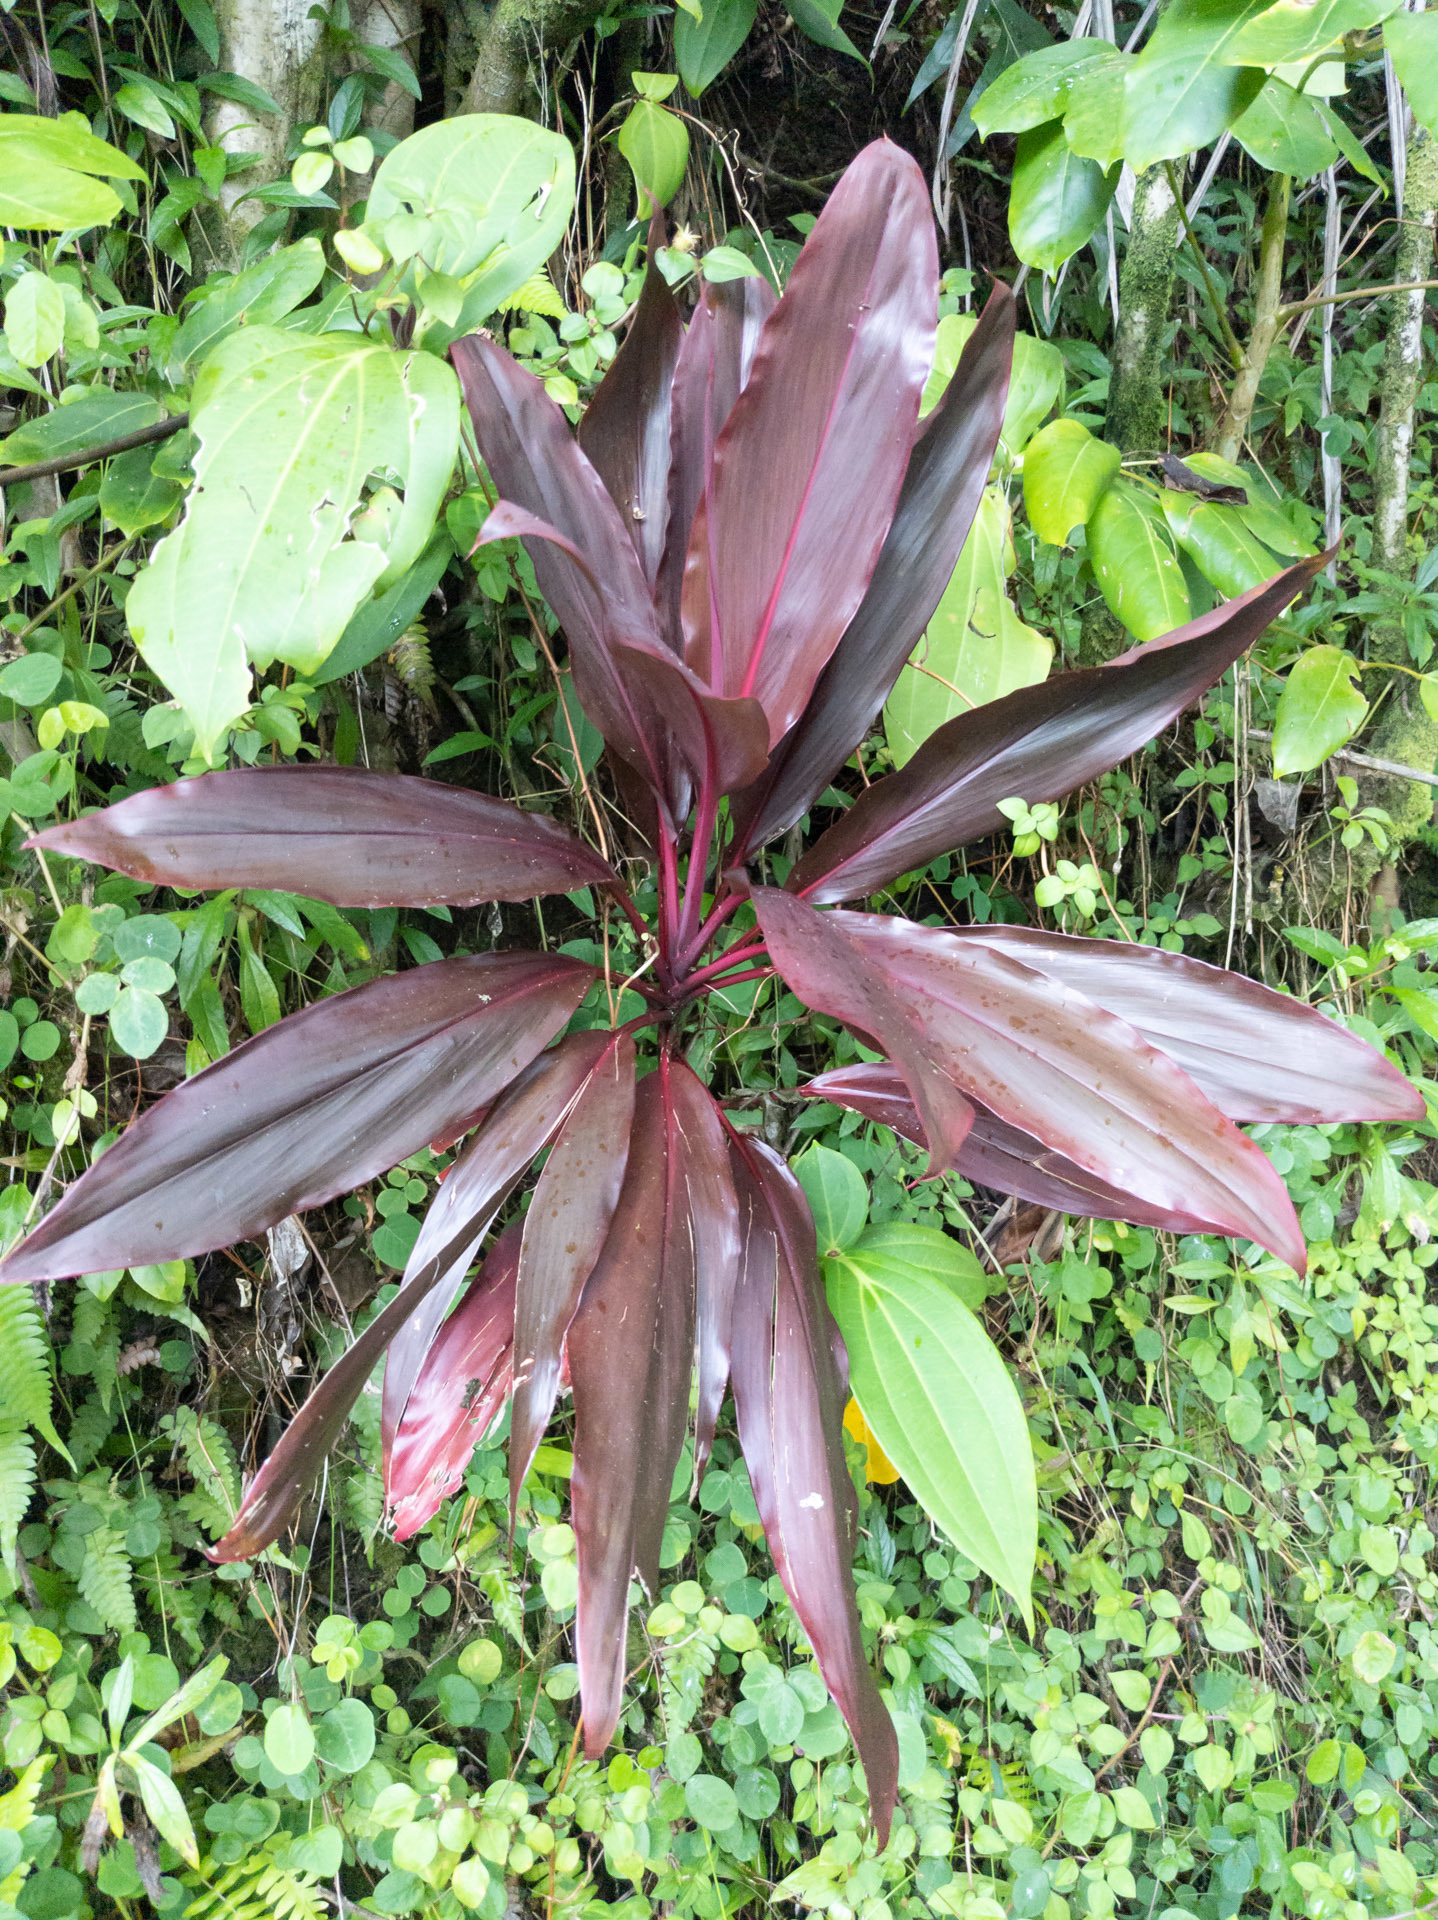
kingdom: Plantae
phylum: Tracheophyta
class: Liliopsida
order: Asparagales
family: Asparagaceae
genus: Cordyline
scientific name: Cordyline fruticosa
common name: Good-luck-plant
